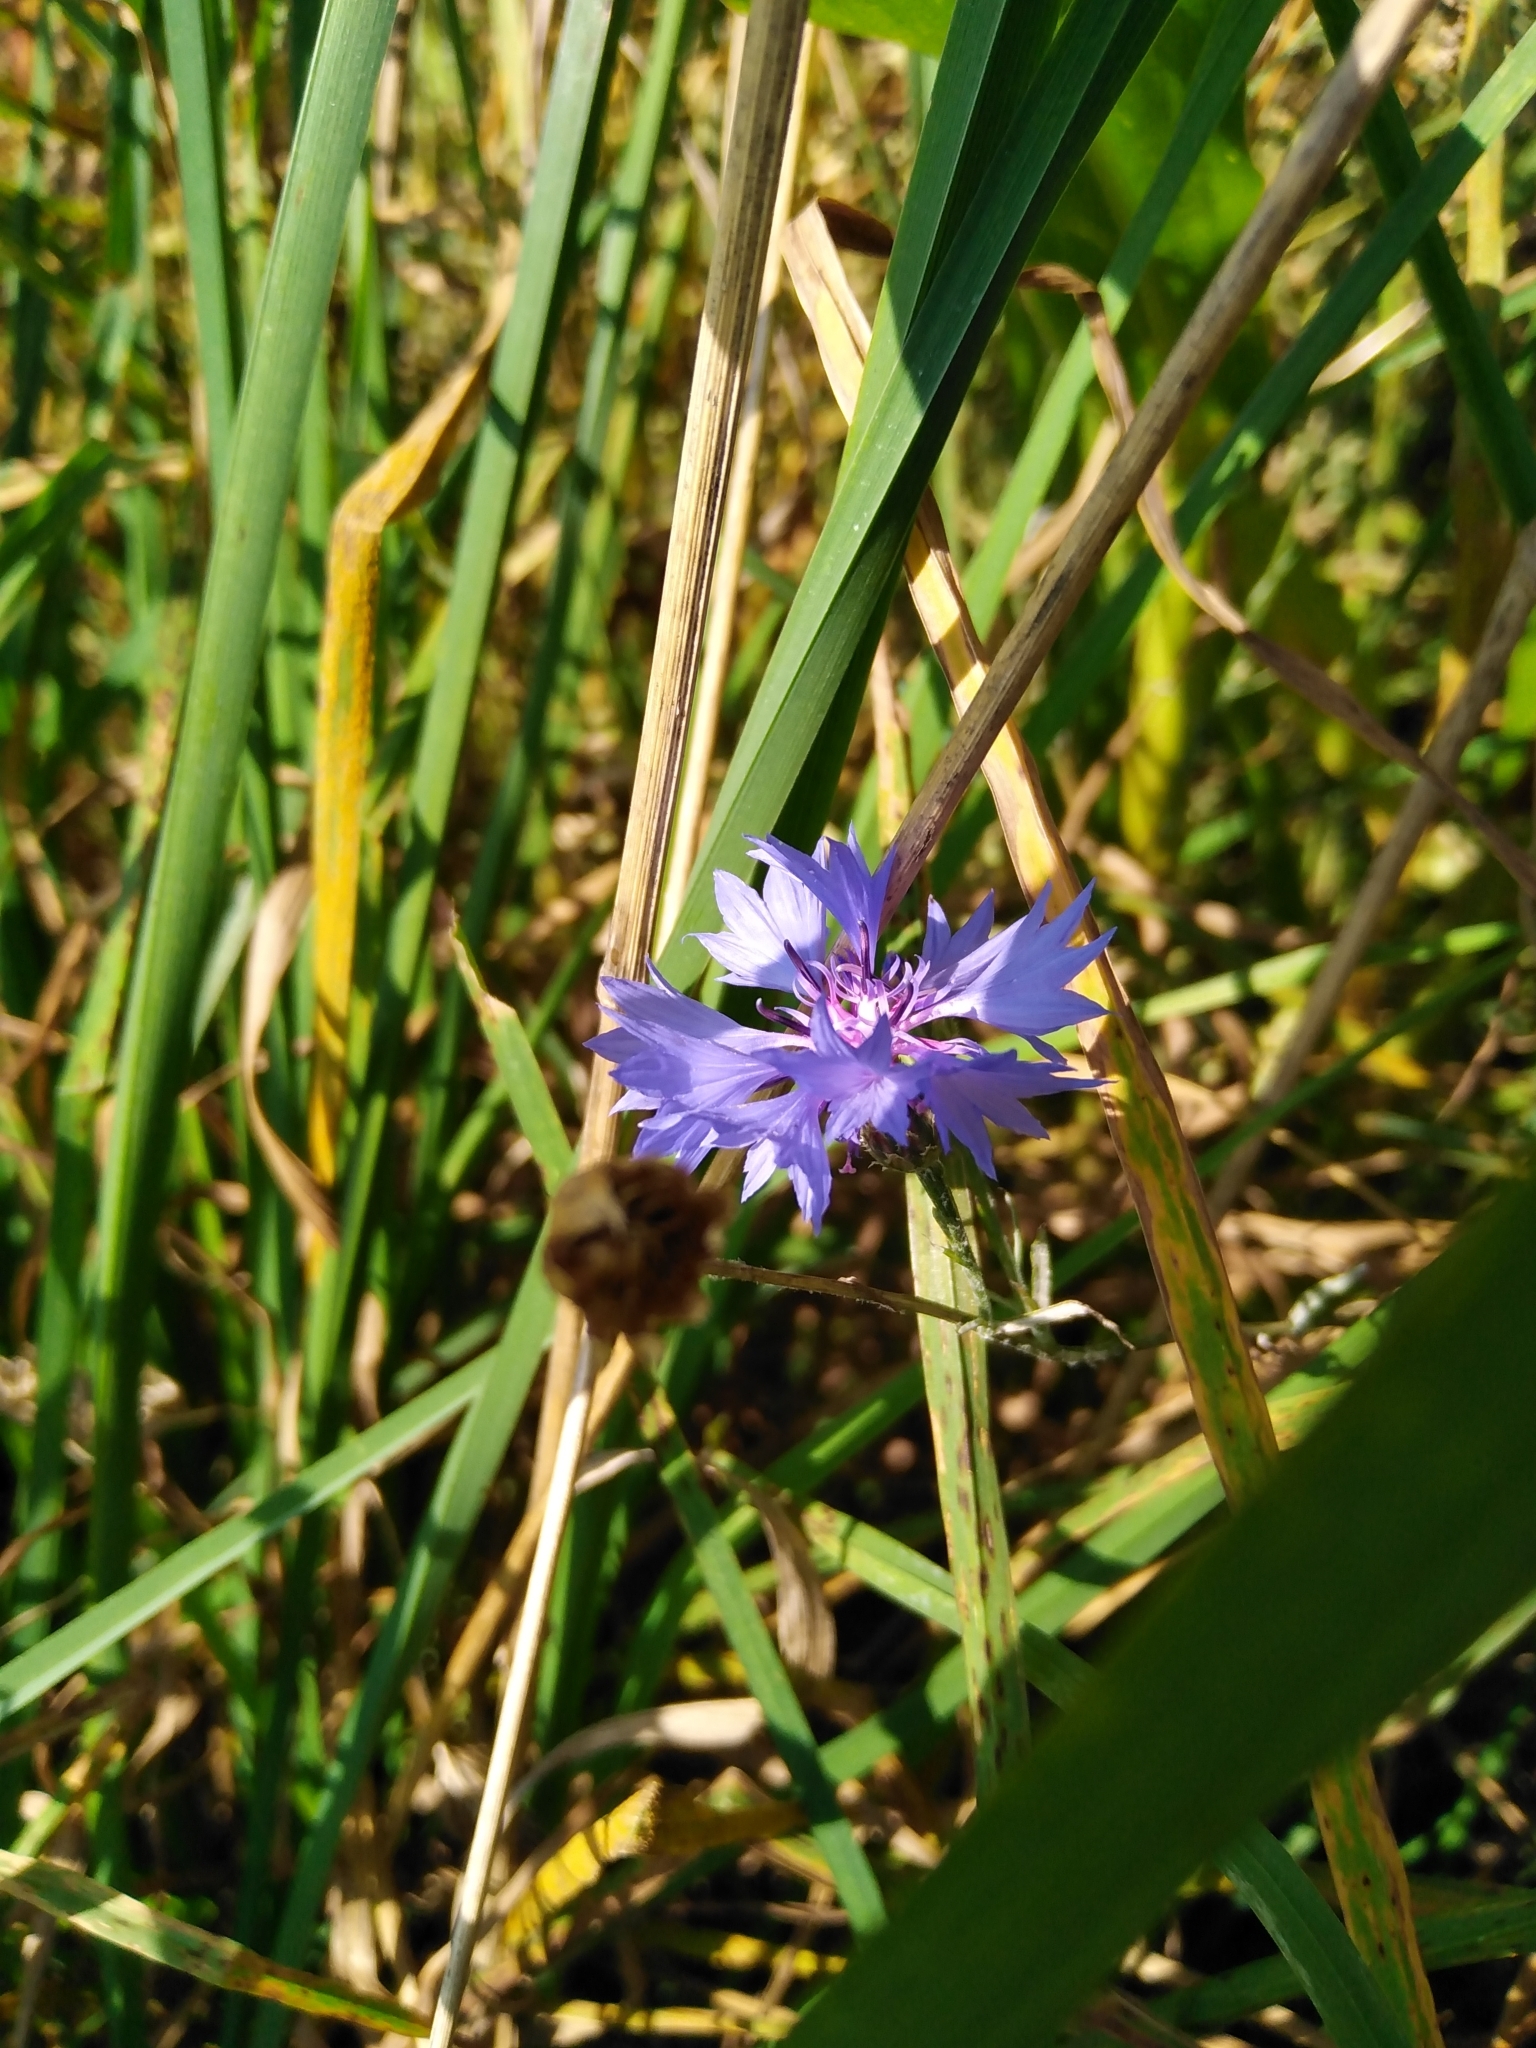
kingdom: Plantae
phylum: Tracheophyta
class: Magnoliopsida
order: Asterales
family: Asteraceae
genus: Centaurea
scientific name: Centaurea cyanus
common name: Cornflower
